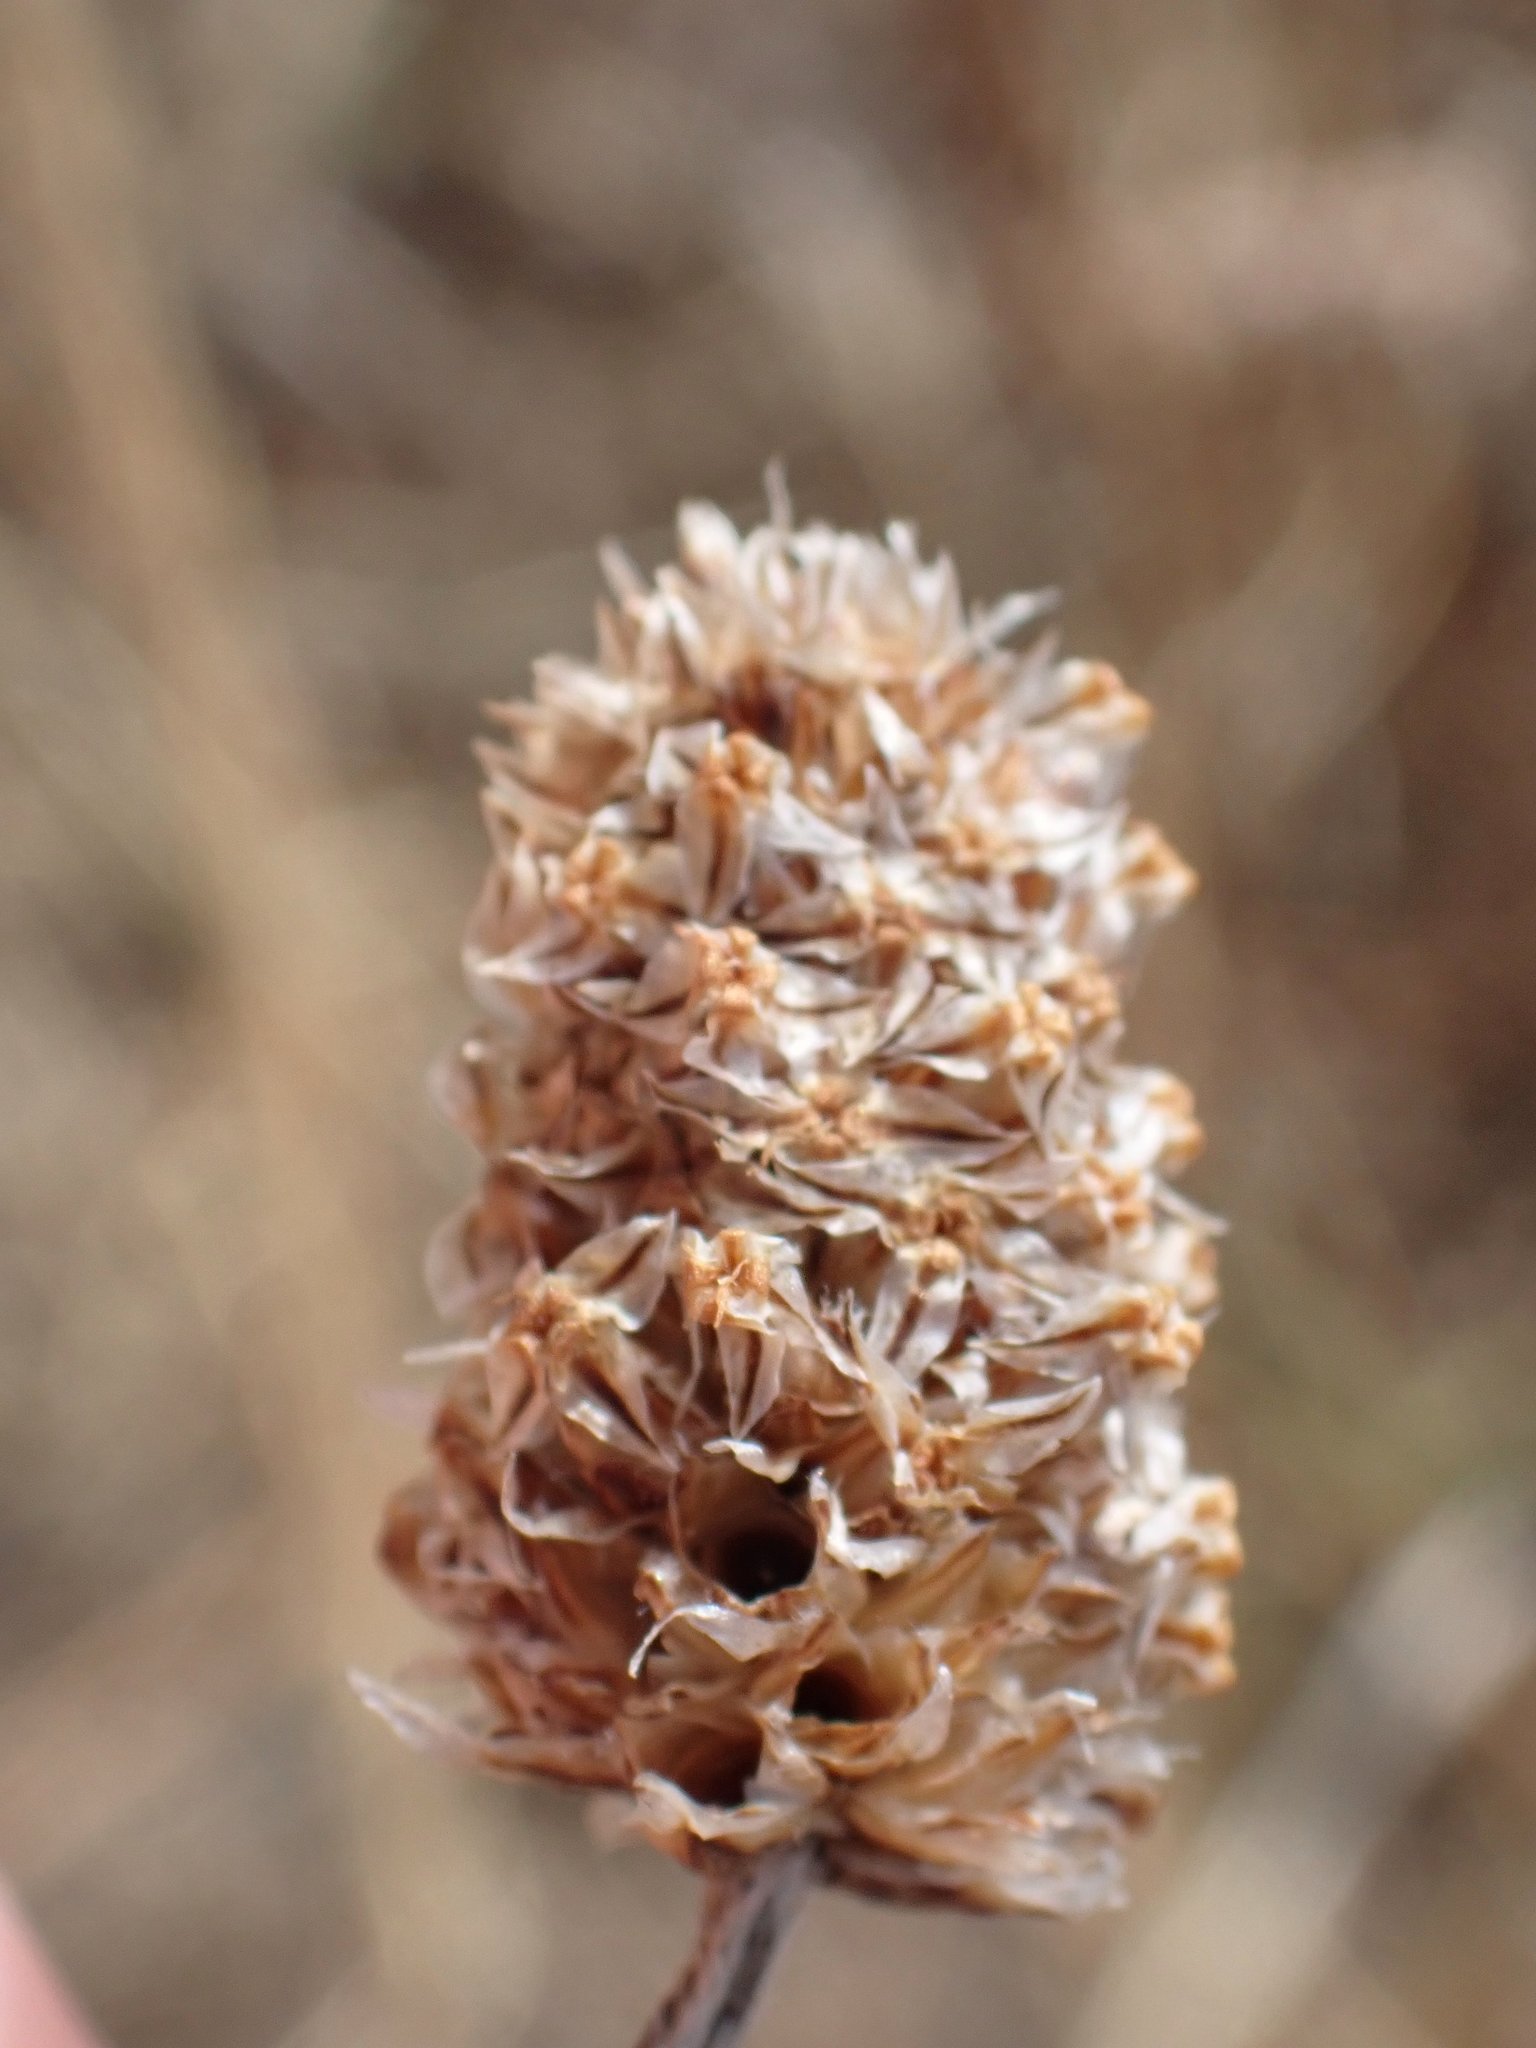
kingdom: Plantae
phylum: Tracheophyta
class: Magnoliopsida
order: Lamiales
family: Plantaginaceae
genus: Plantago
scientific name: Plantago lanceolata
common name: Ribwort plantain
